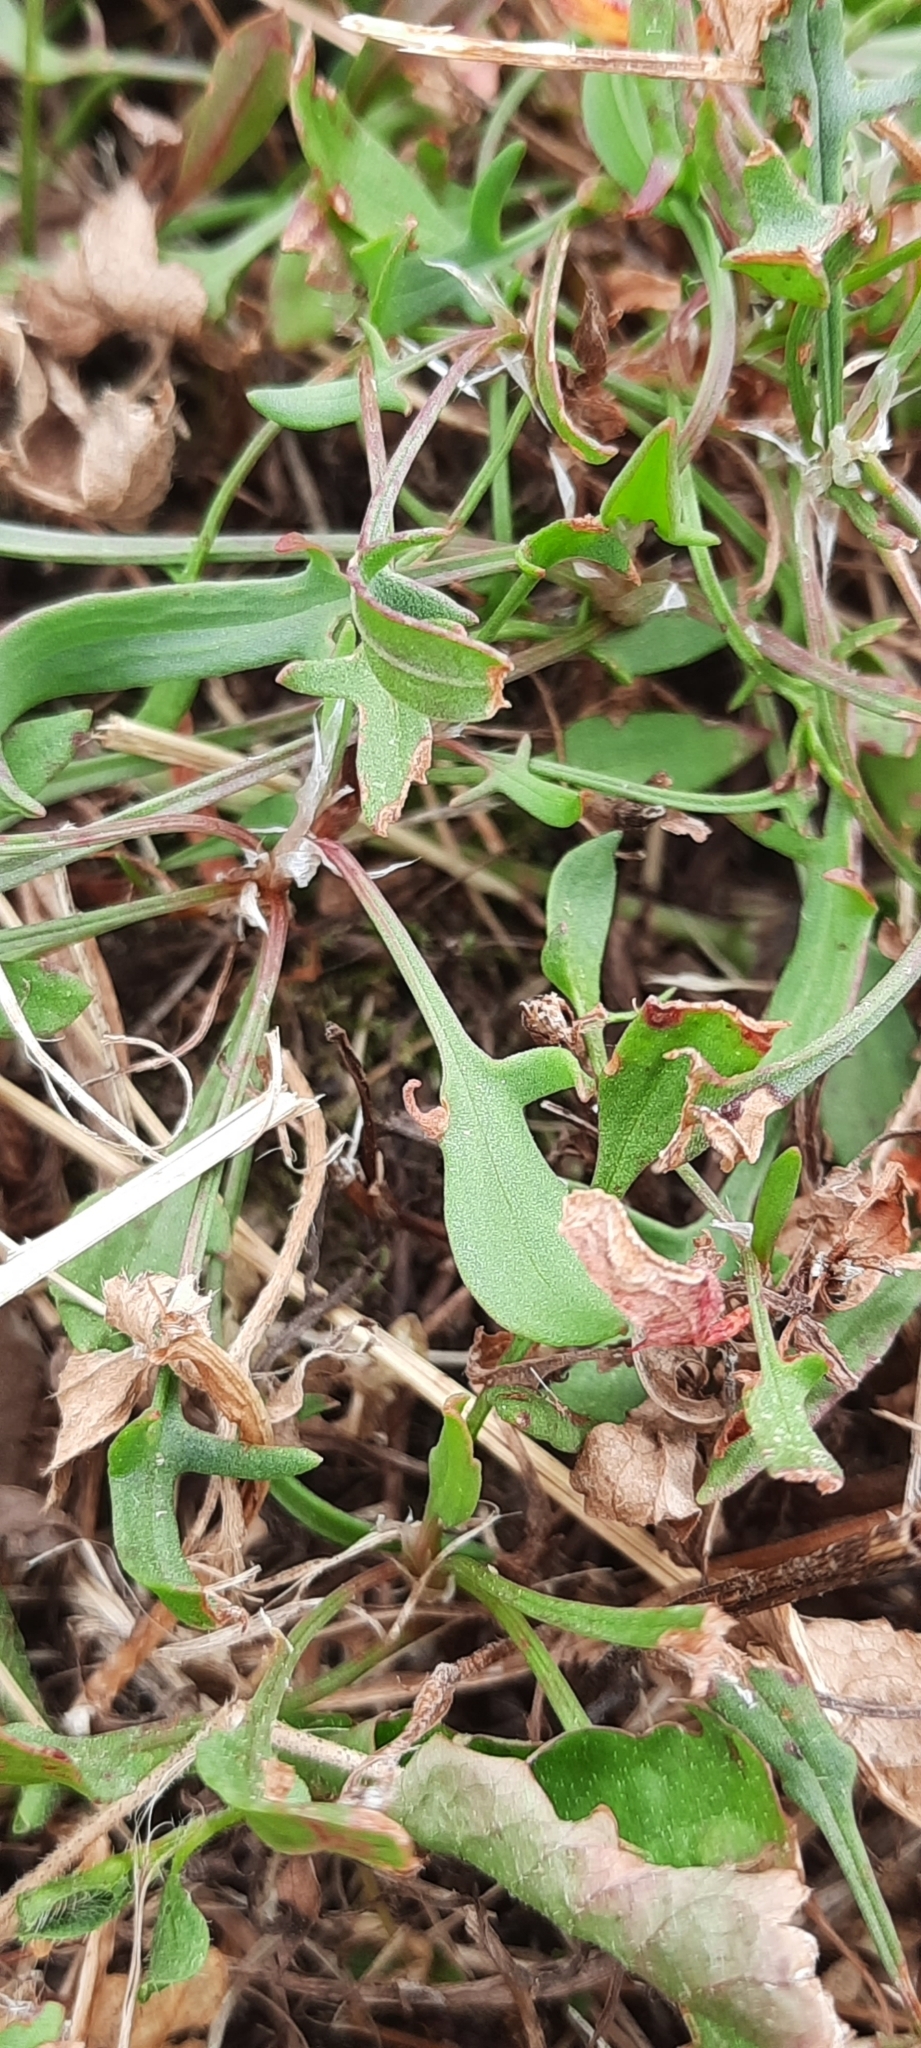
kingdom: Plantae
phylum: Tracheophyta
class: Magnoliopsida
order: Caryophyllales
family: Polygonaceae
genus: Rumex
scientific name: Rumex acetosella
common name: Common sheep sorrel
